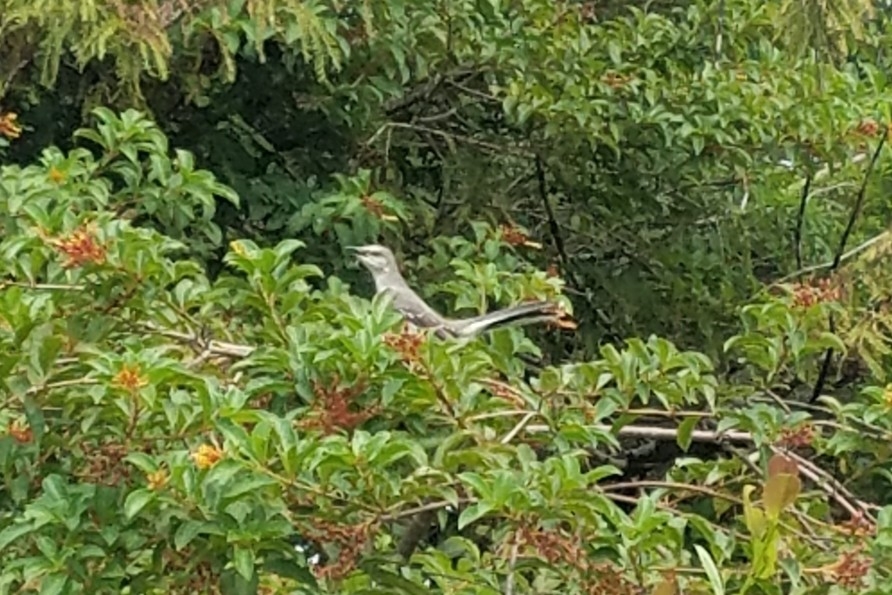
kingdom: Animalia
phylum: Chordata
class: Aves
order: Passeriformes
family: Mimidae
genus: Mimus
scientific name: Mimus polyglottos
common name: Northern mockingbird
